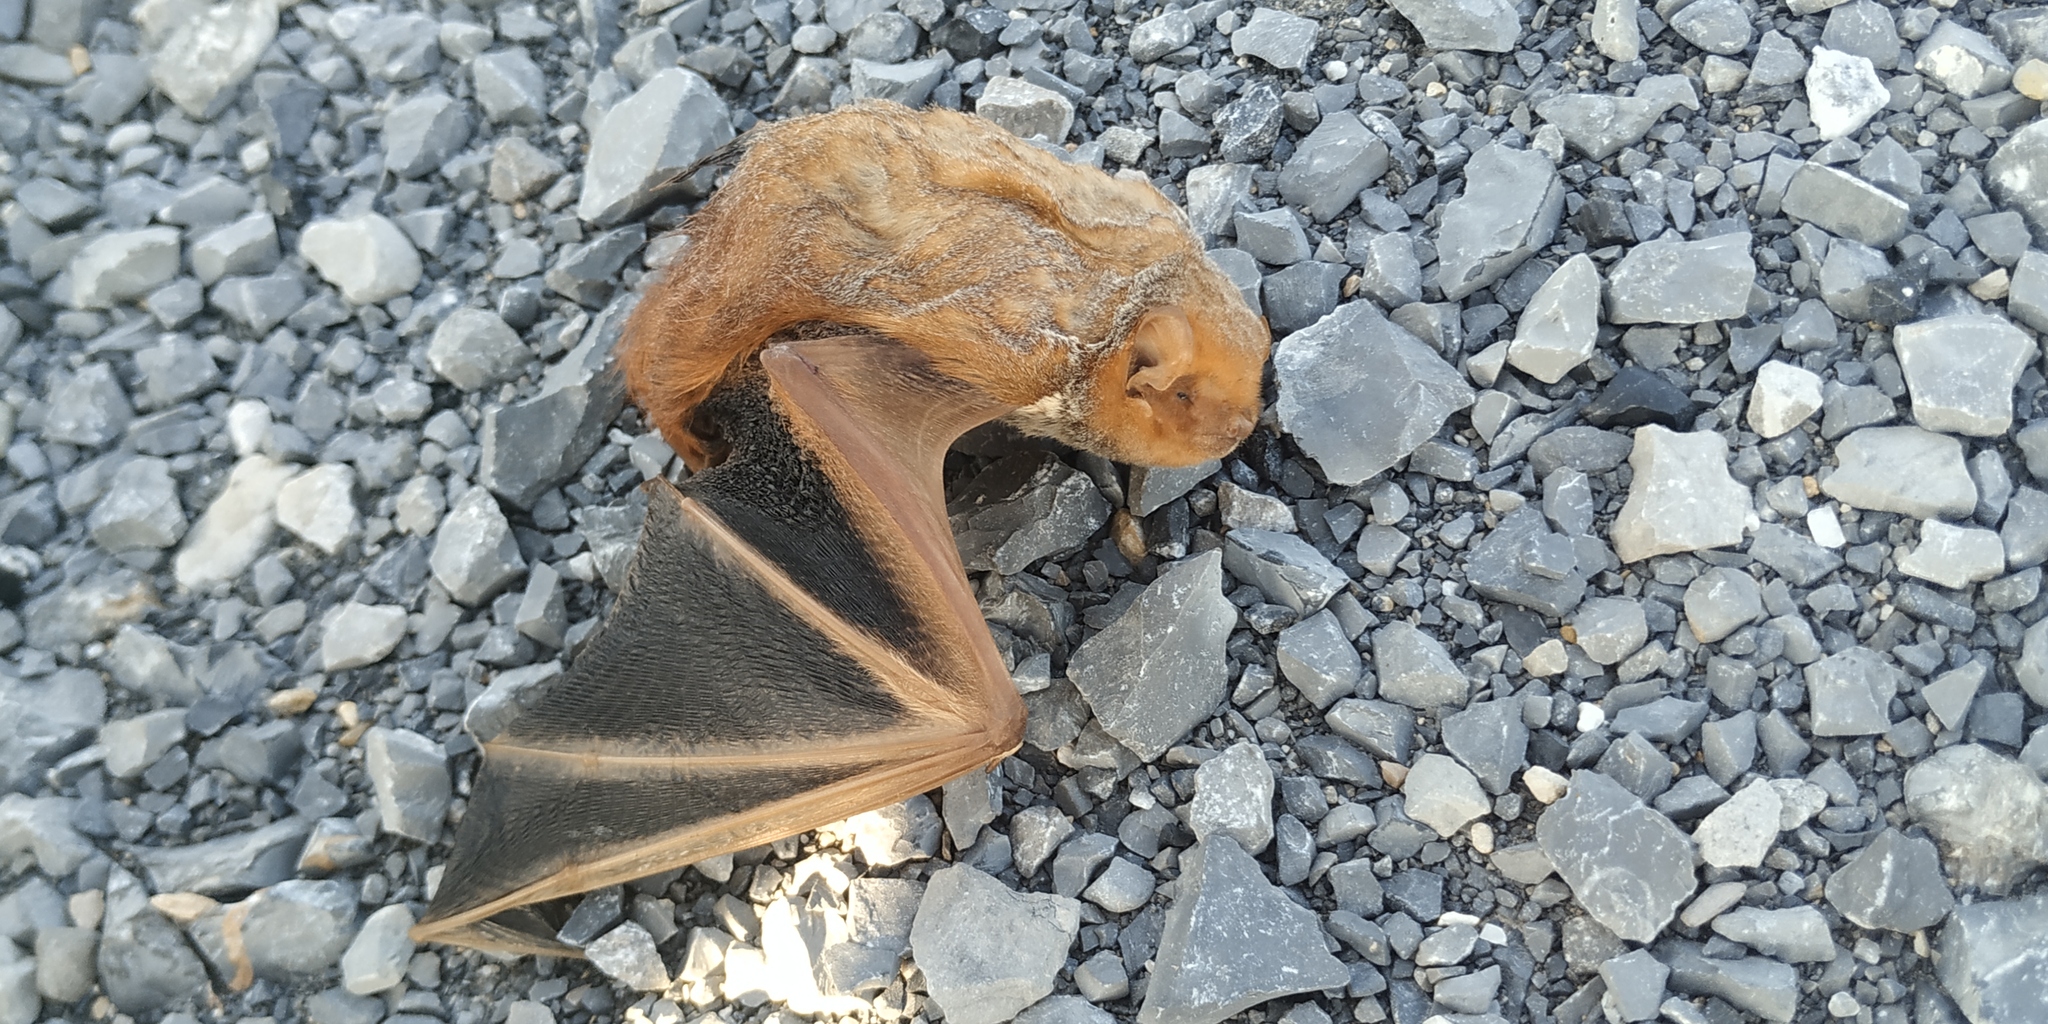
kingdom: Animalia
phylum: Chordata
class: Mammalia
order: Chiroptera
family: Vespertilionidae
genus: Lasiurus
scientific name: Lasiurus borealis
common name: Eastern red bat
